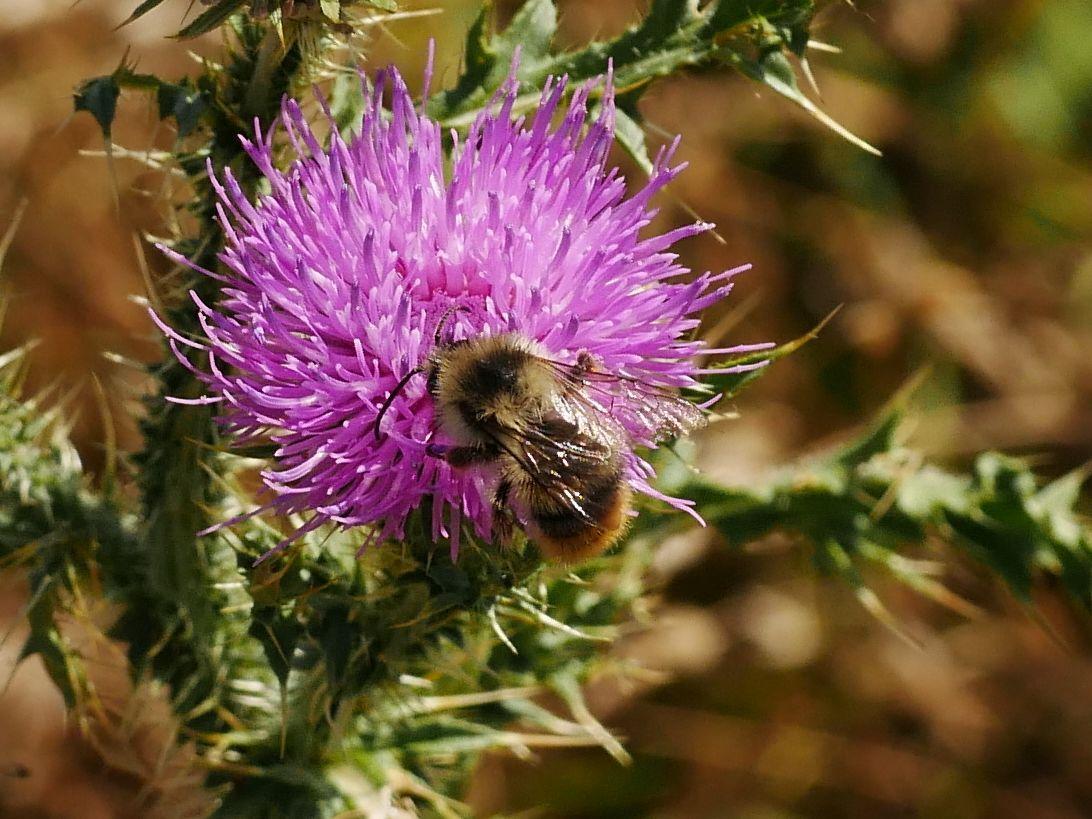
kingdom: Animalia
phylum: Arthropoda
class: Insecta
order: Hymenoptera
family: Apidae
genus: Bombus
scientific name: Bombus sylvarum
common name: Shrill carder bee
